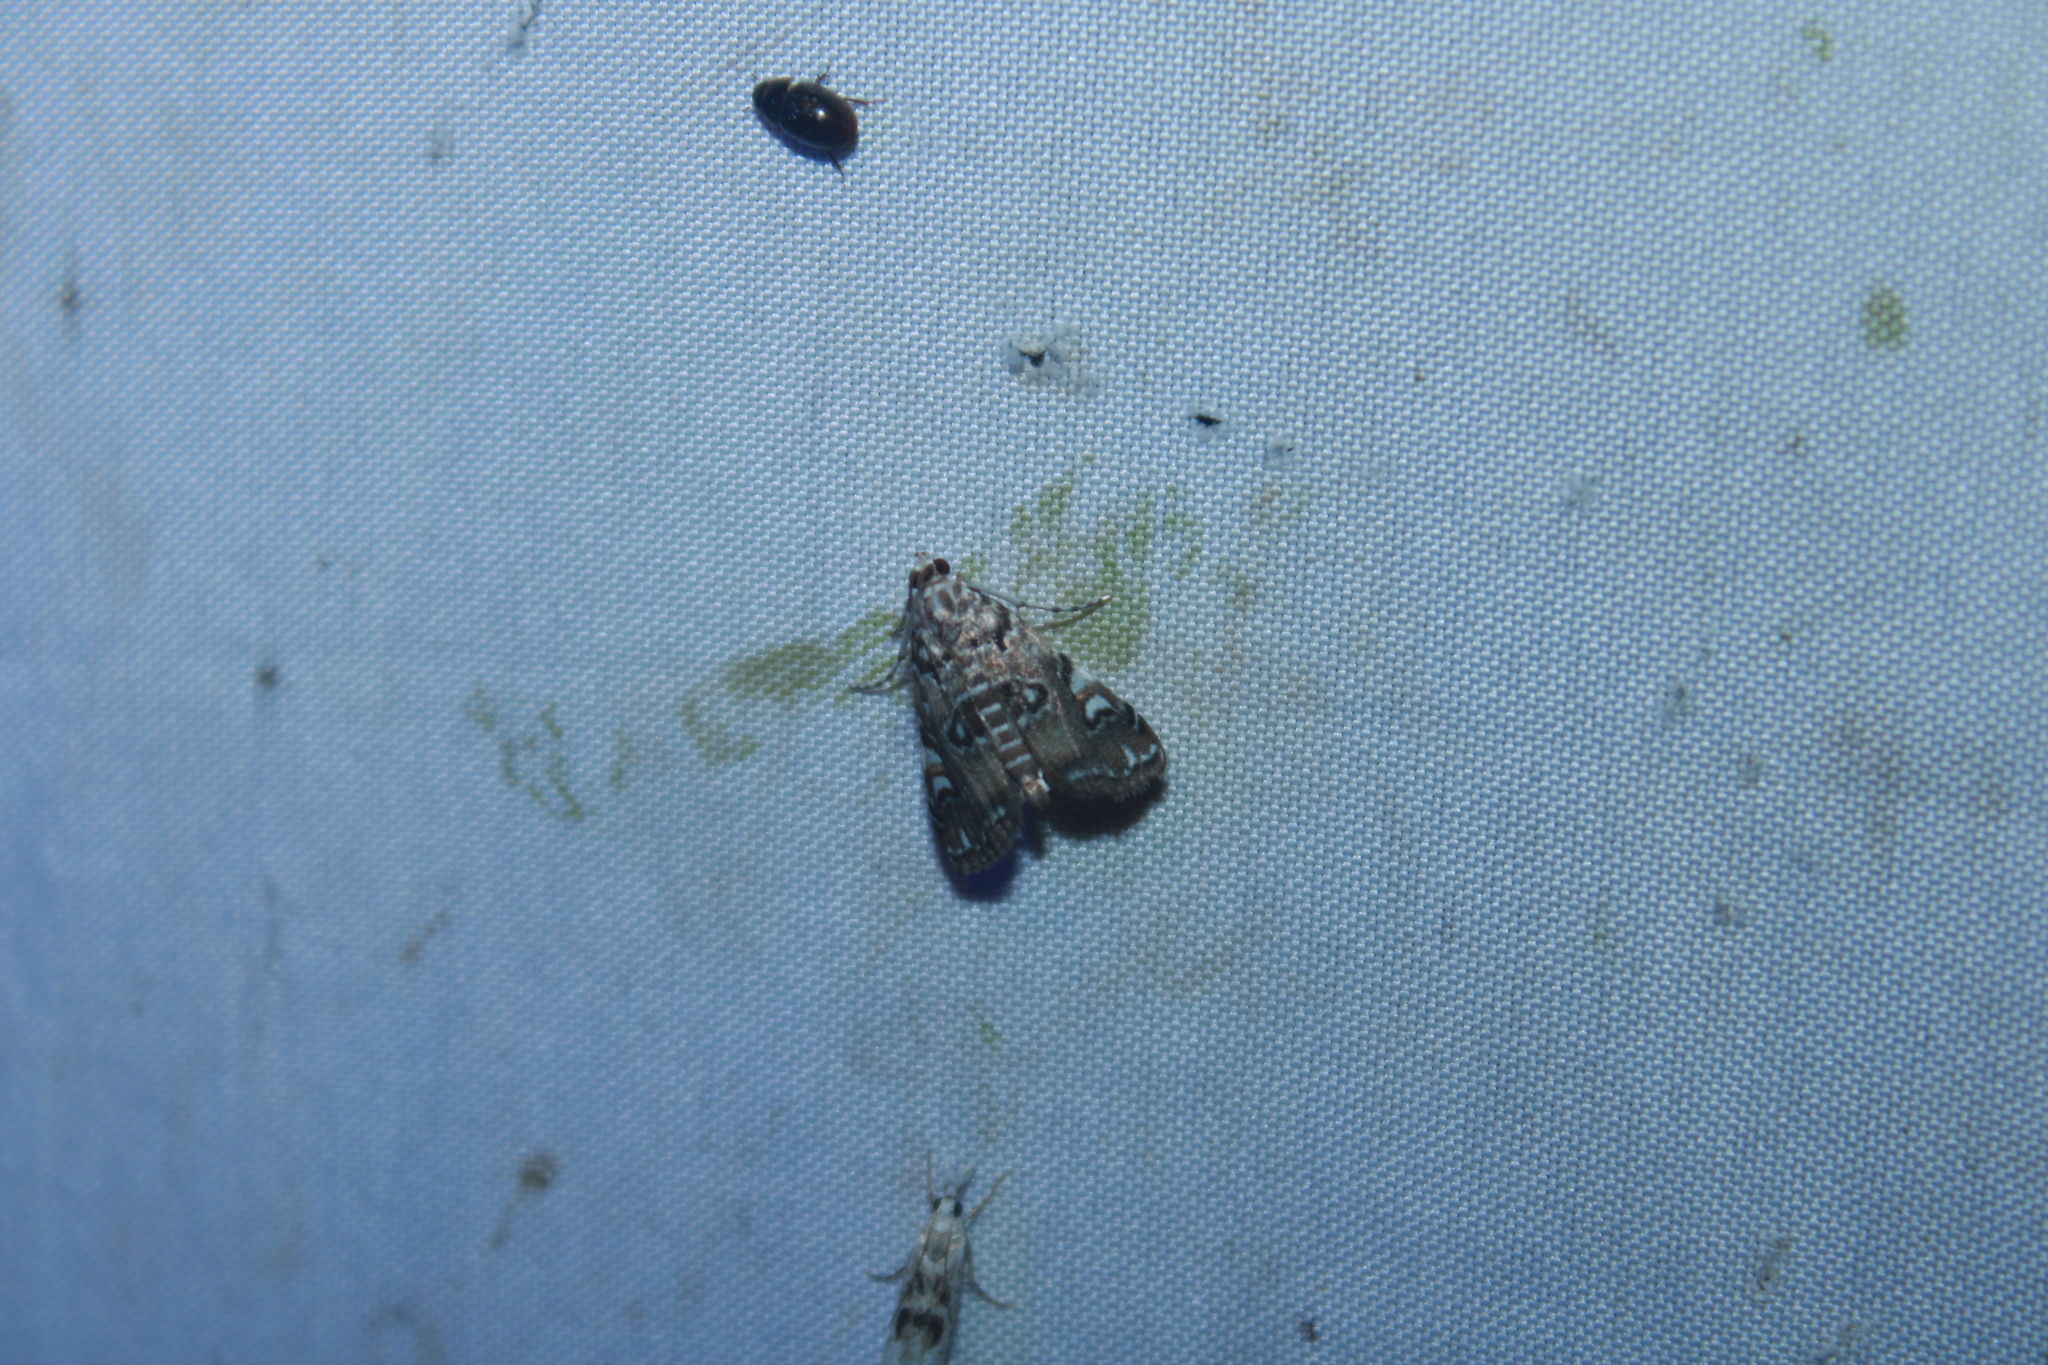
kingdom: Animalia
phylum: Arthropoda
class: Insecta
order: Lepidoptera
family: Crambidae
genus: Elophila
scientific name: Elophila gyralis
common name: Waterlily borer moth
